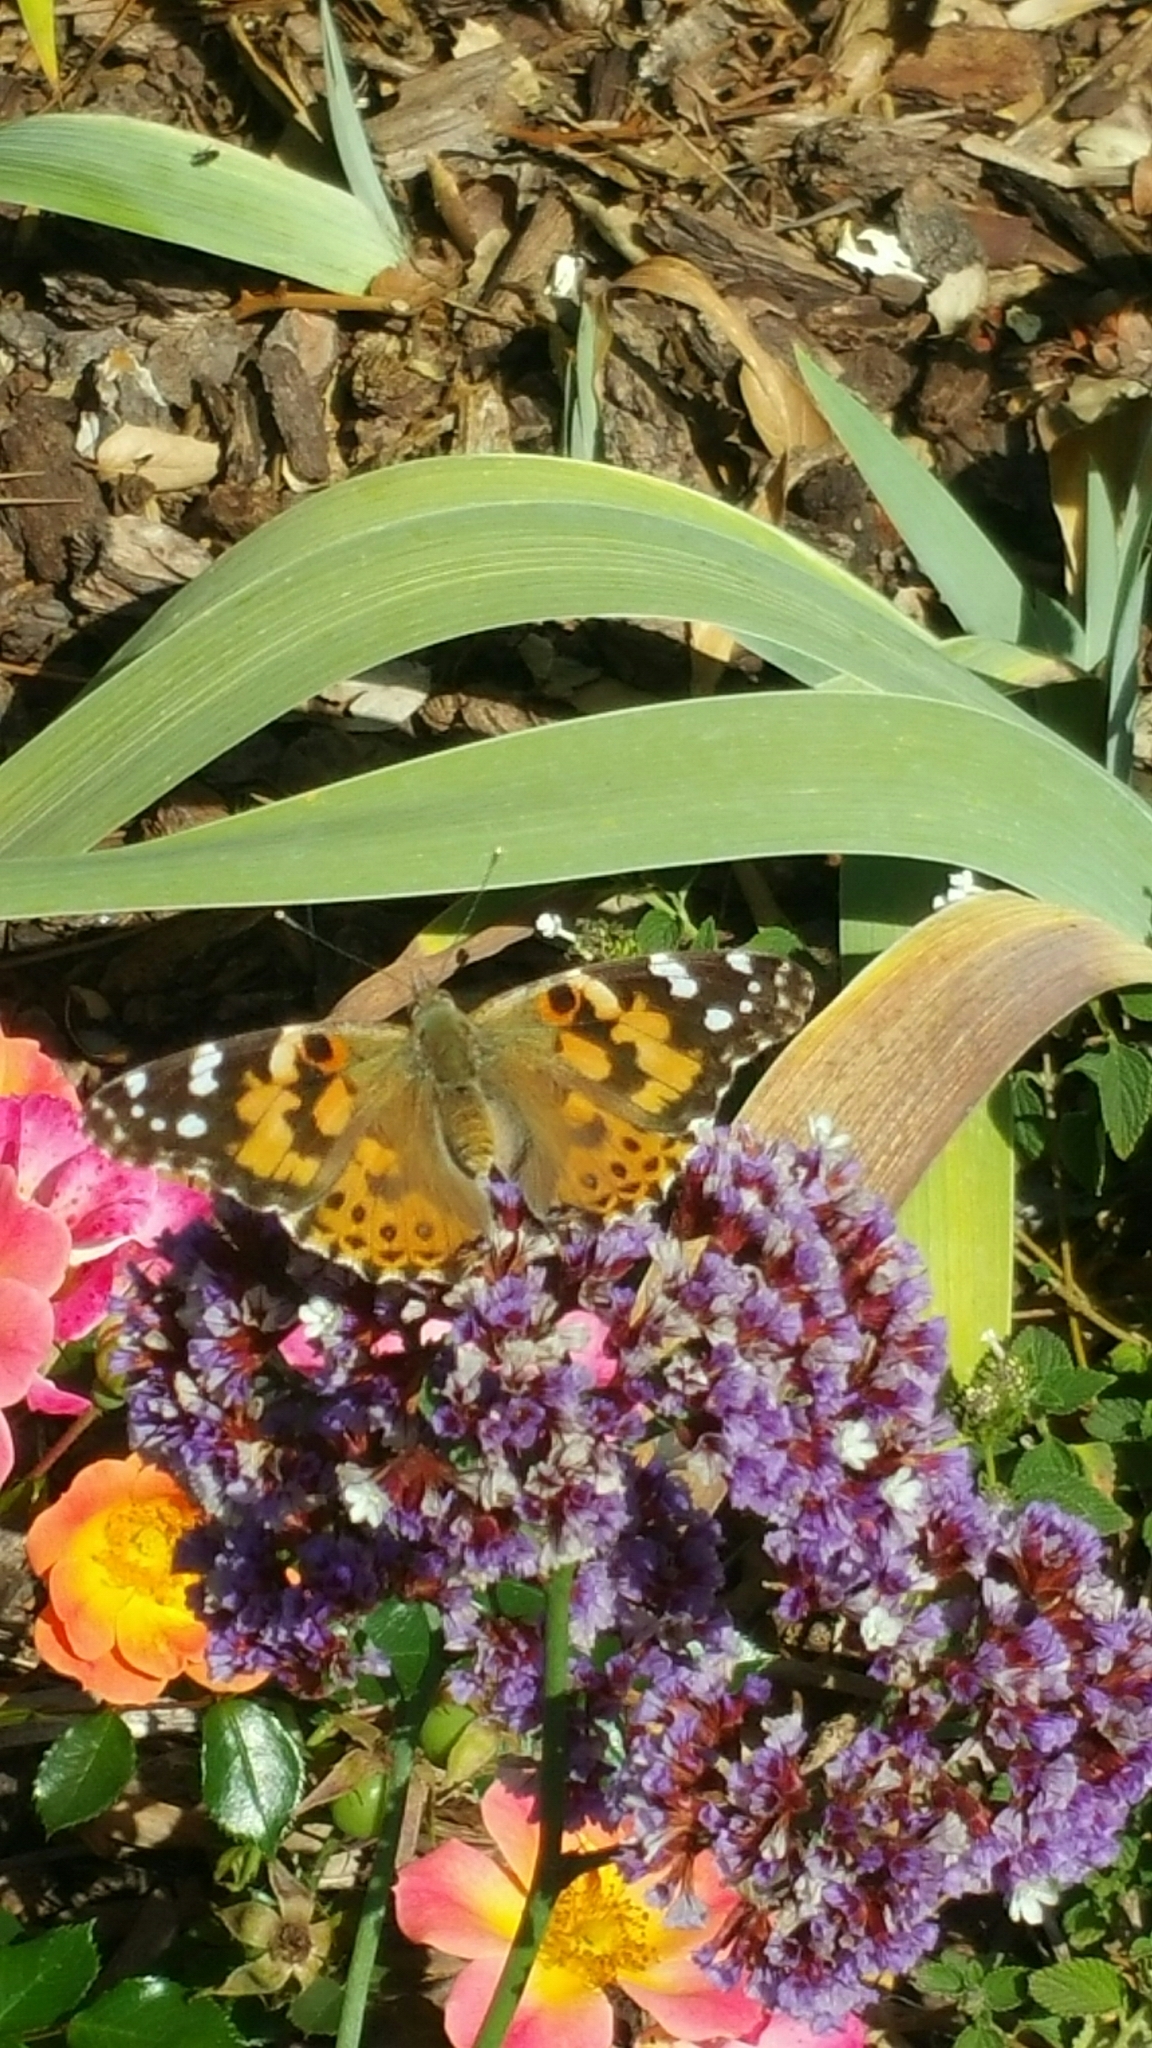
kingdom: Animalia
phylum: Arthropoda
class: Insecta
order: Lepidoptera
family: Nymphalidae
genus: Vanessa
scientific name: Vanessa cardui
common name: Painted lady
